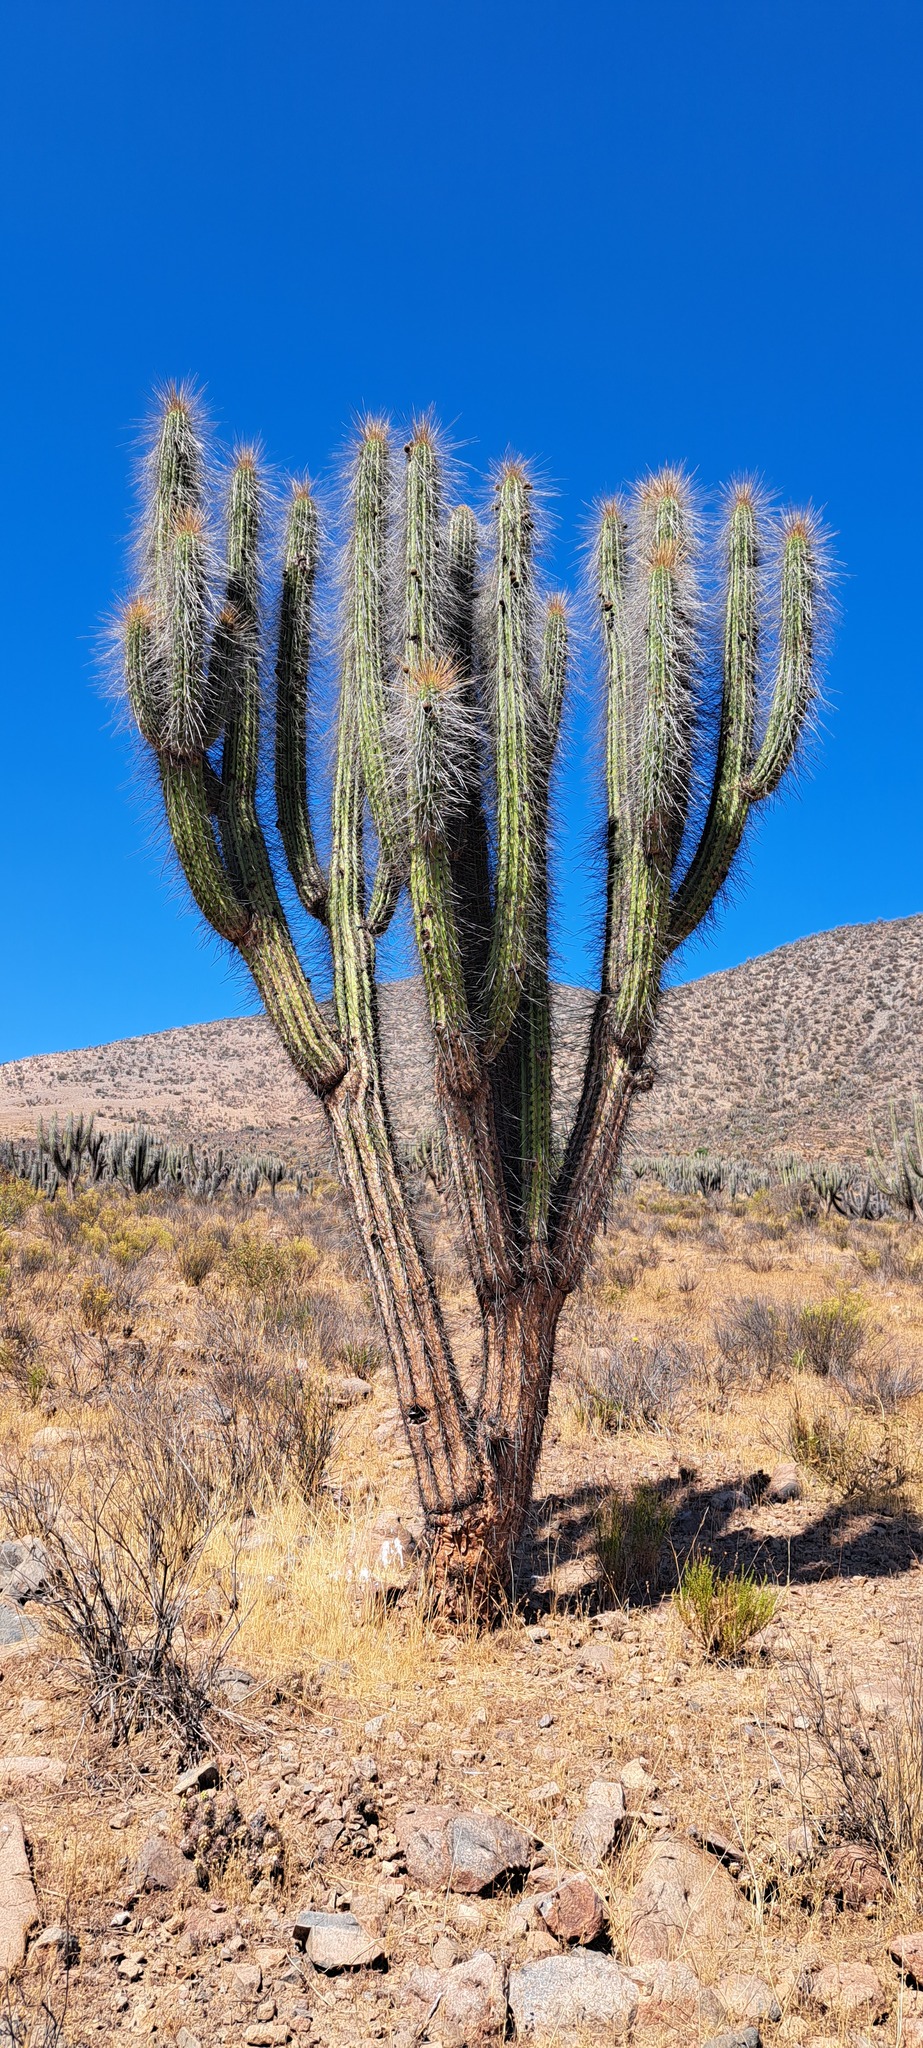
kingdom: Plantae
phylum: Tracheophyta
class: Magnoliopsida
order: Caryophyllales
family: Cactaceae
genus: Eulychnia
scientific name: Eulychnia acida
